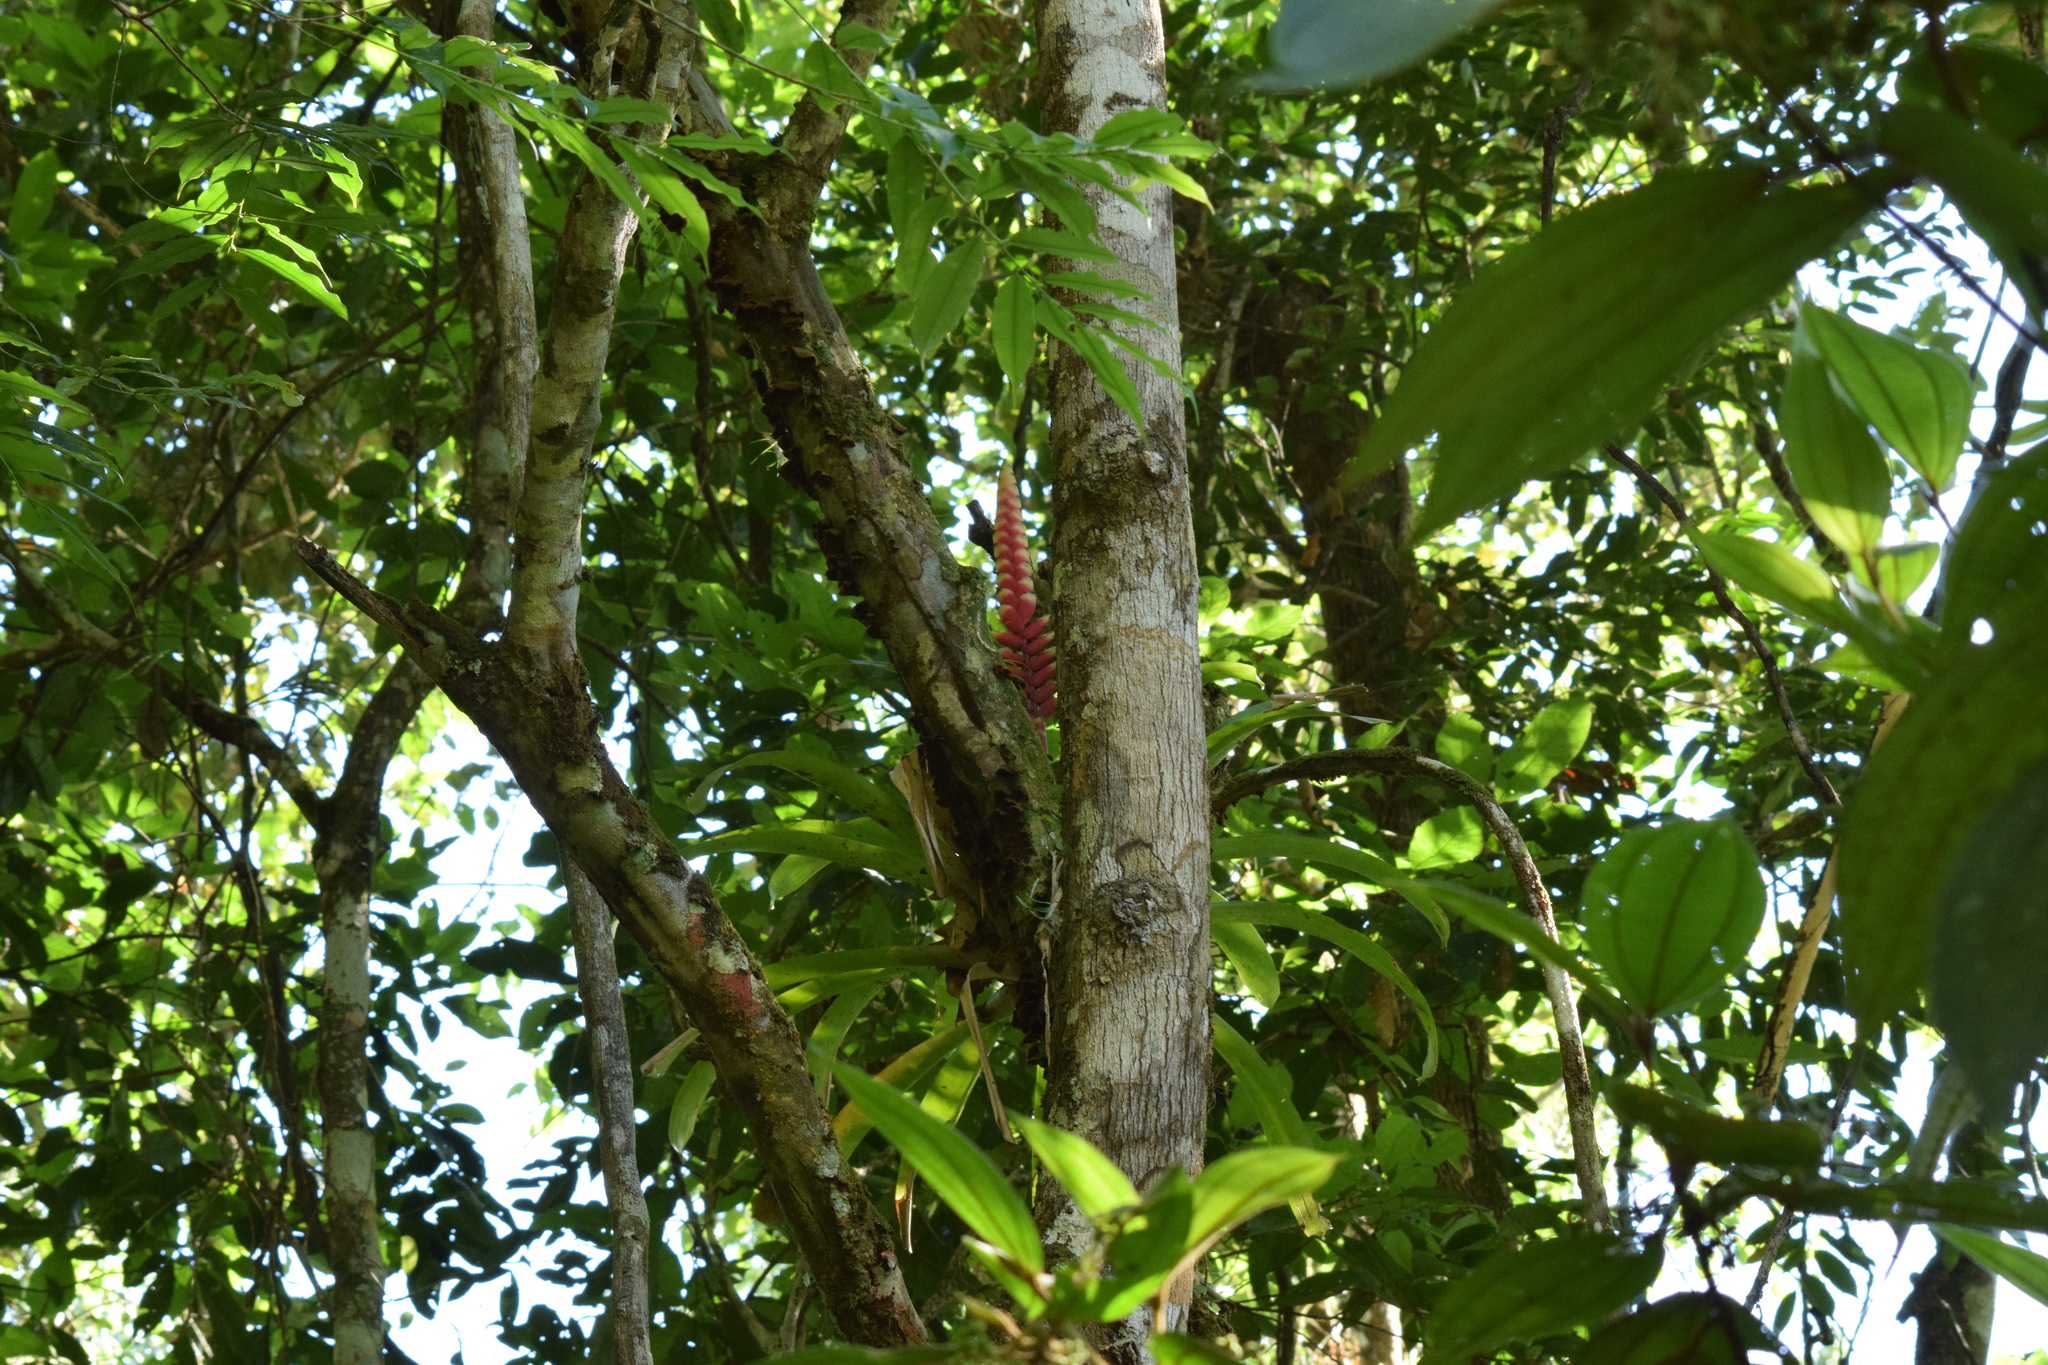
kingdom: Plantae
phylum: Tracheophyta
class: Liliopsida
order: Poales
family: Bromeliaceae
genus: Vriesea
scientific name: Vriesea ensiformis
